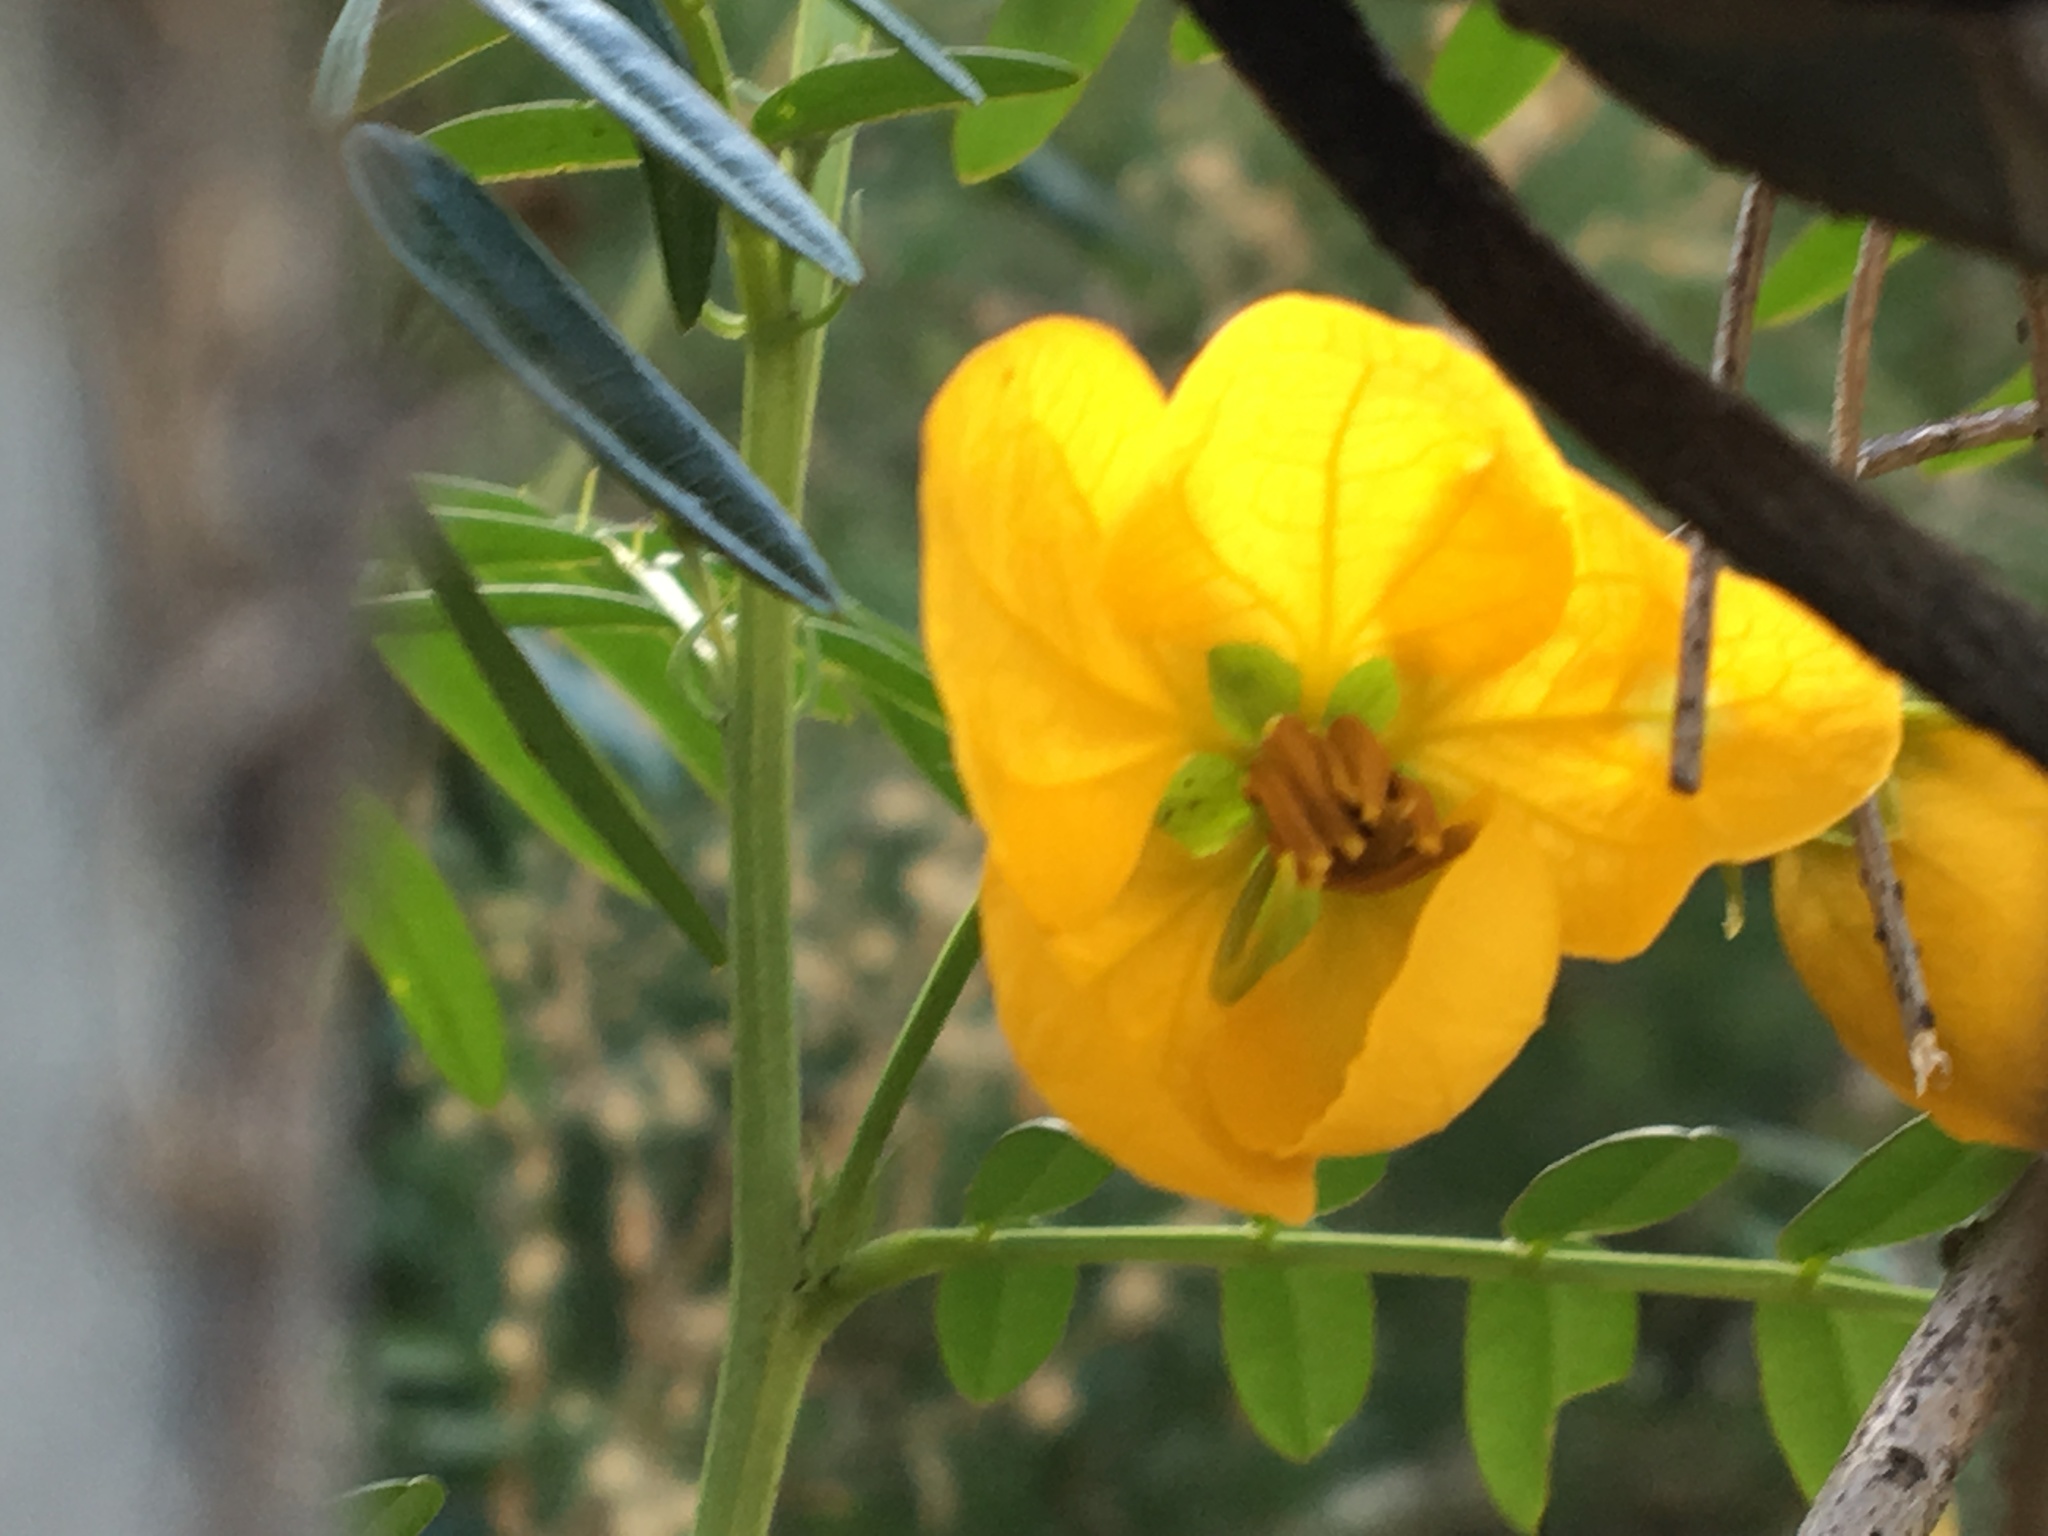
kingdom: Plantae
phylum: Tracheophyta
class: Magnoliopsida
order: Fabales
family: Fabaceae
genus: Senna
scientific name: Senna barronfieldii
